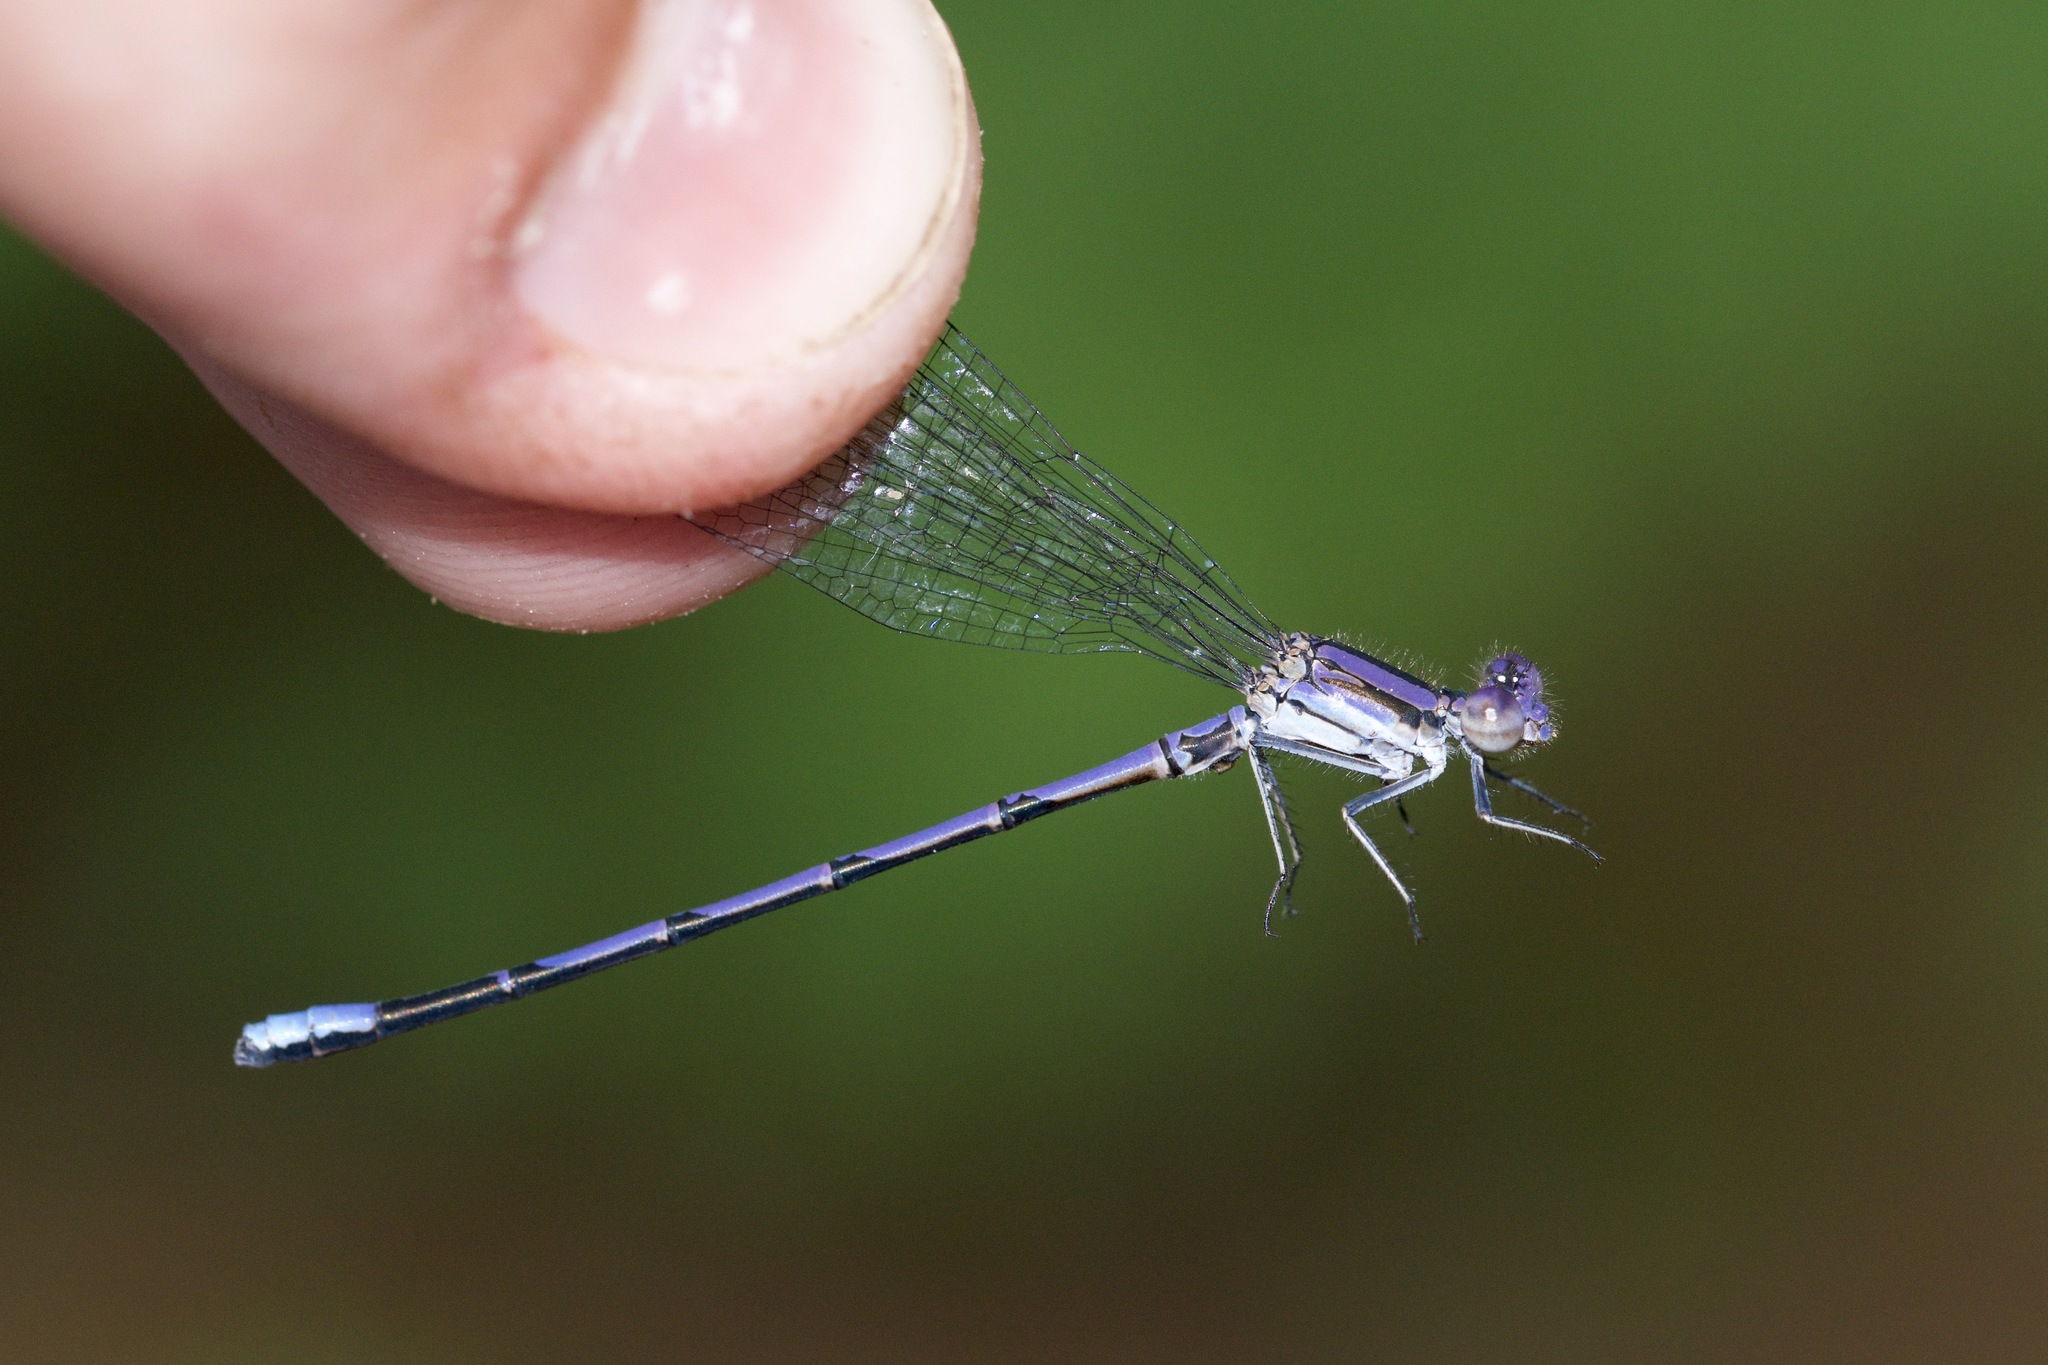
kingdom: Animalia
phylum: Arthropoda
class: Insecta
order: Odonata
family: Coenagrionidae
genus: Argia
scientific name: Argia fumipennis
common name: Variable dancer
